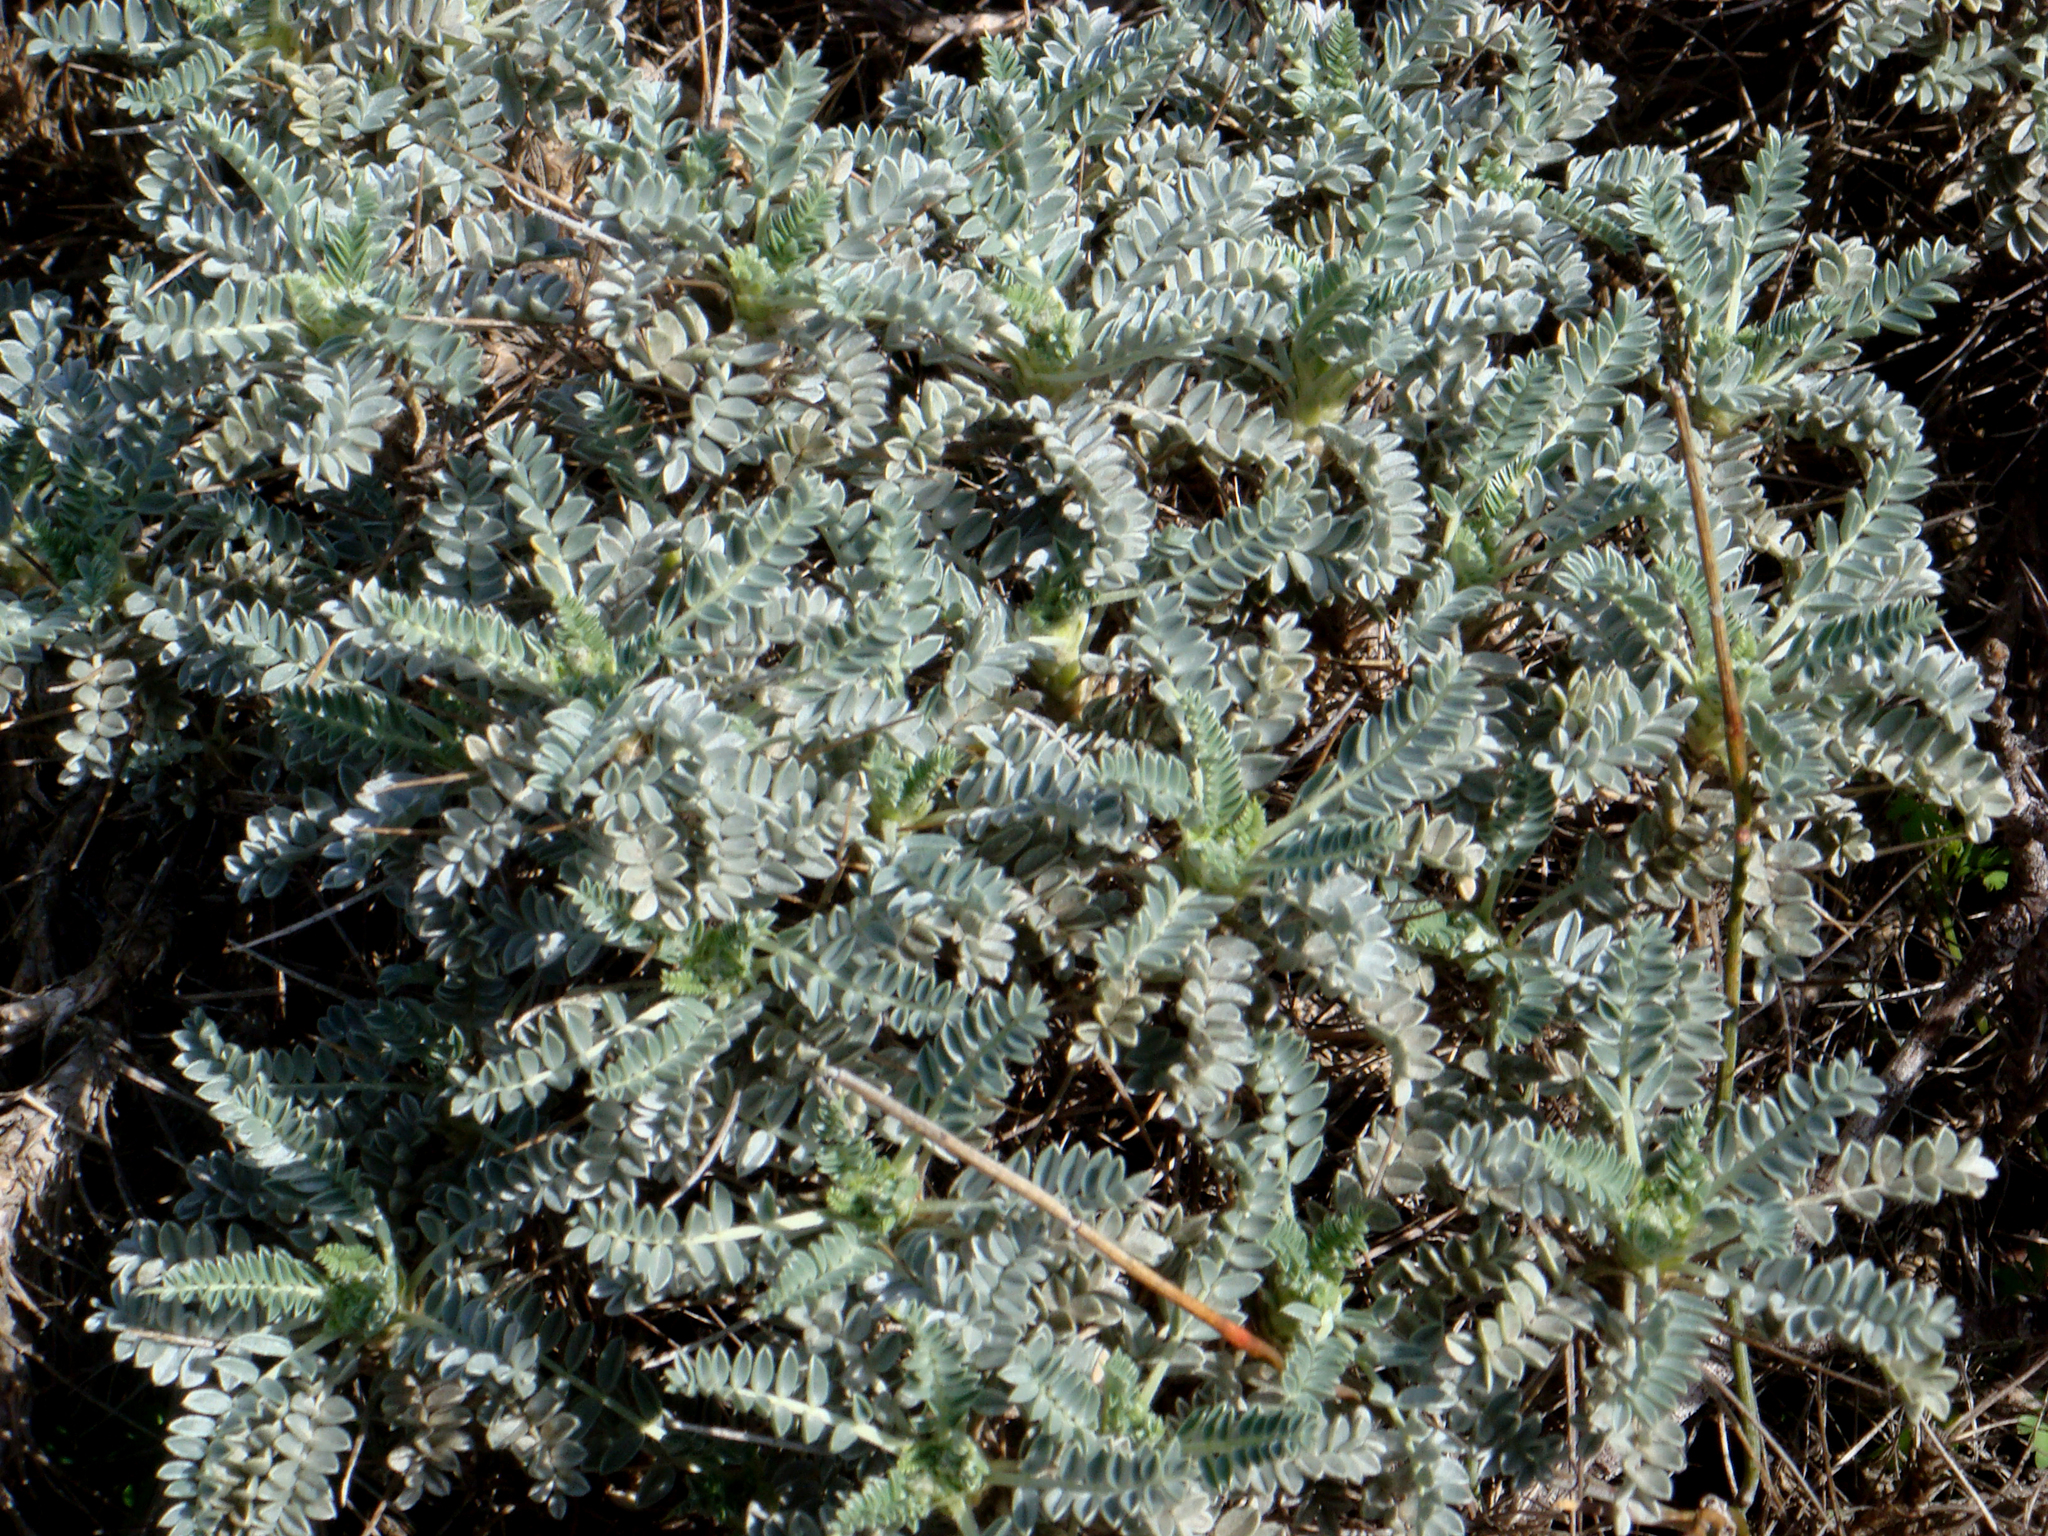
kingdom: Plantae
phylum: Tracheophyta
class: Magnoliopsida
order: Fabales
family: Fabaceae
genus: Astragalus
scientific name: Astragalus thermensis
